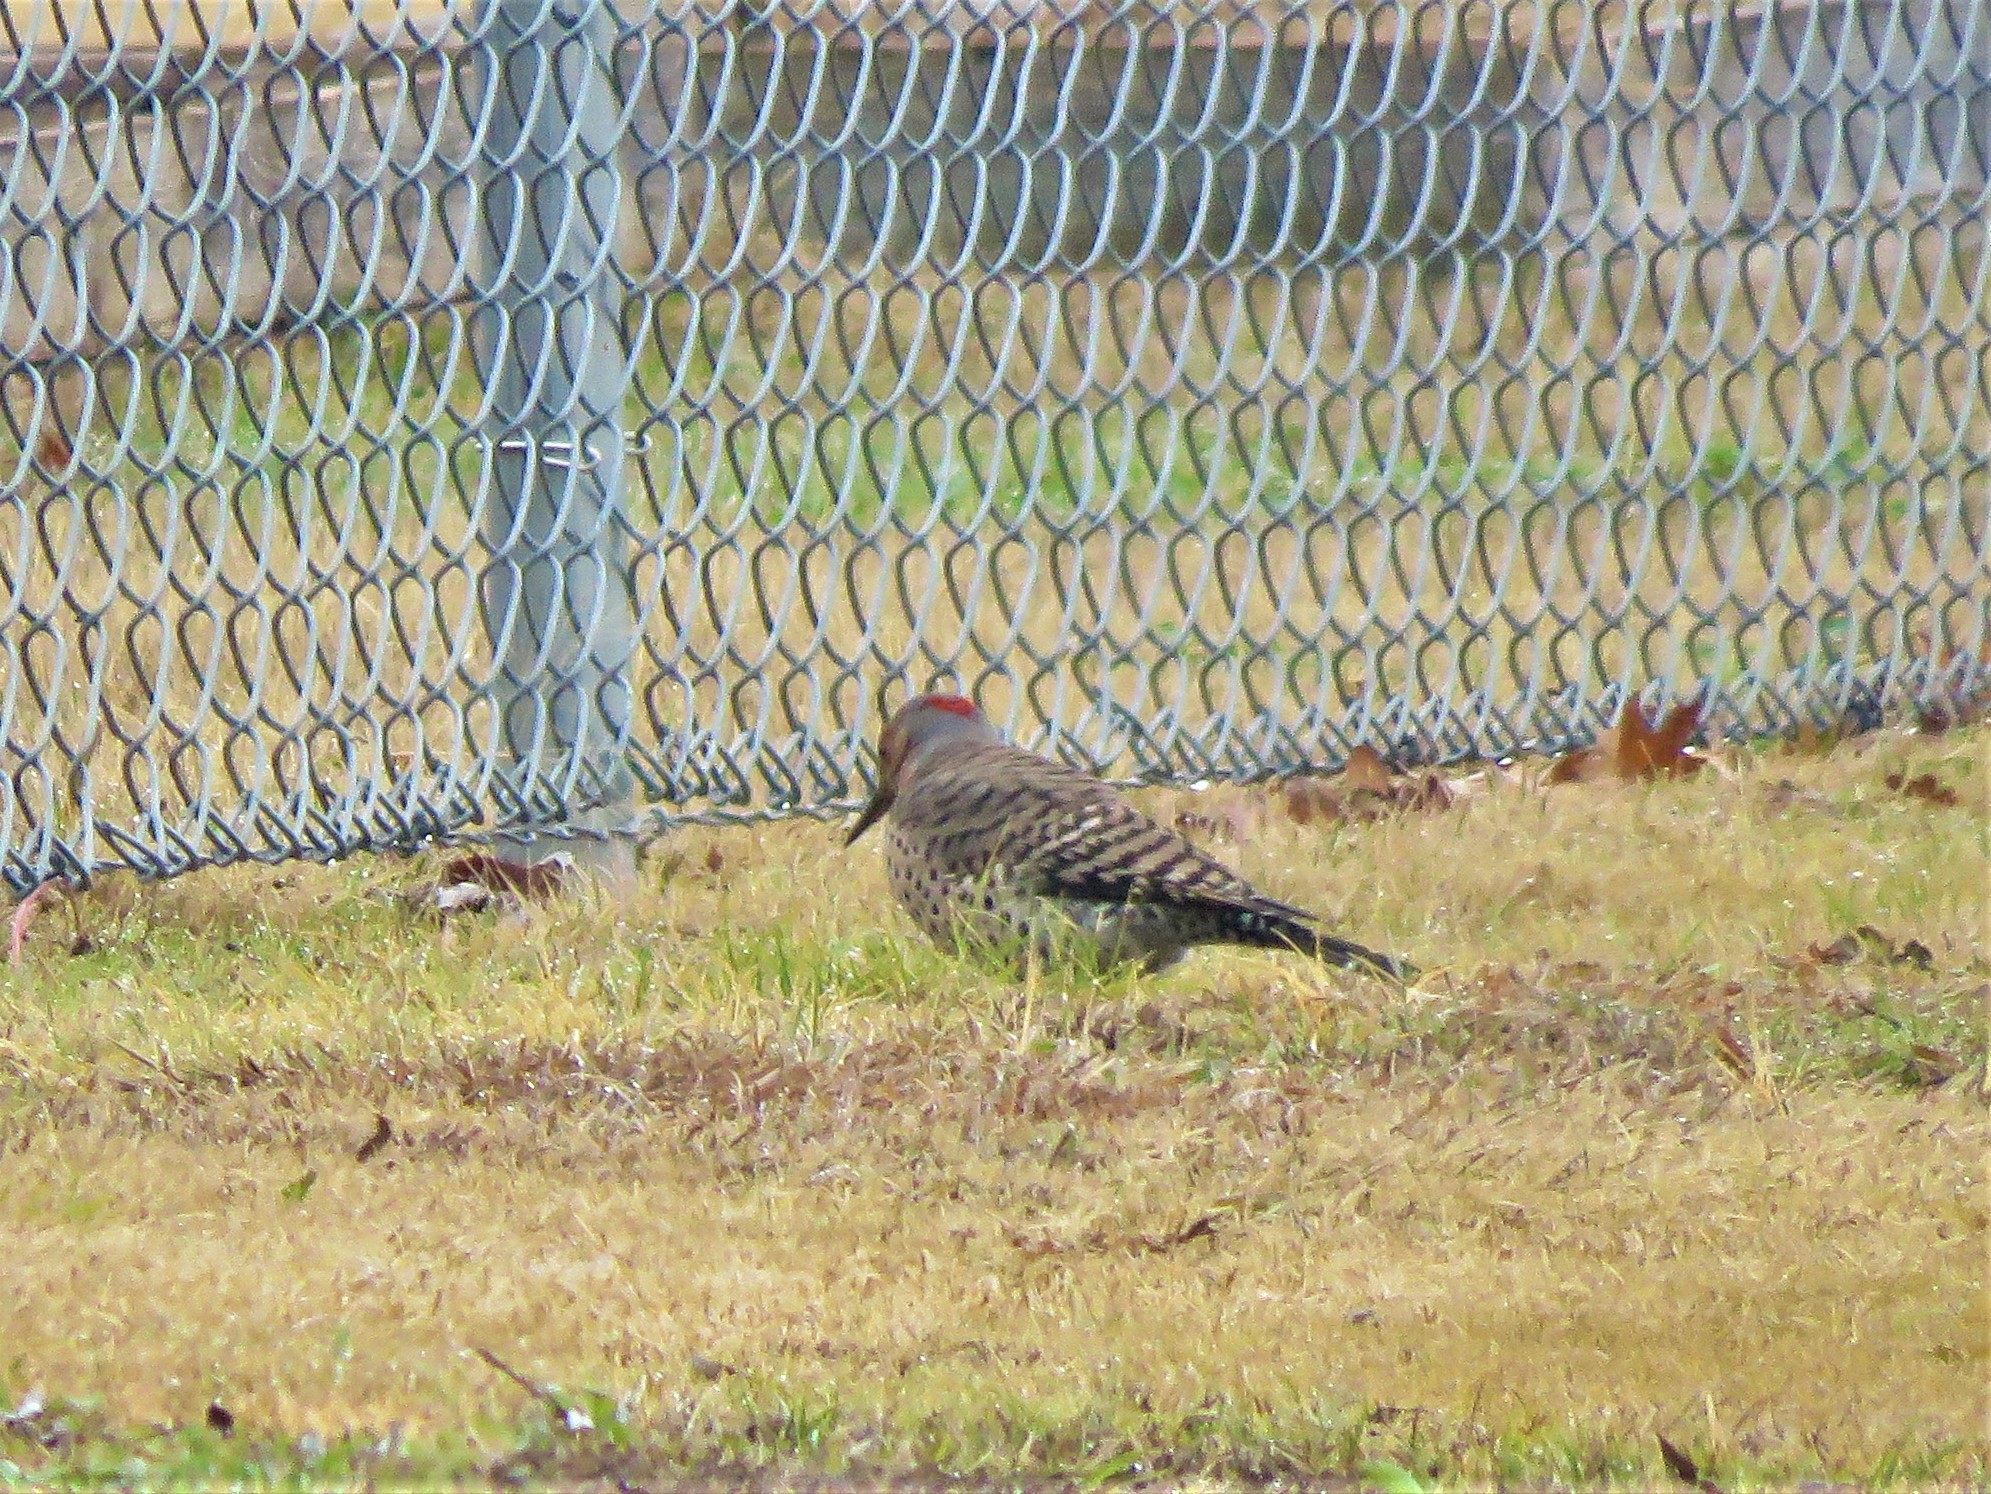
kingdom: Animalia
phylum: Chordata
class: Aves
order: Piciformes
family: Picidae
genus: Colaptes
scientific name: Colaptes auratus
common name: Northern flicker
